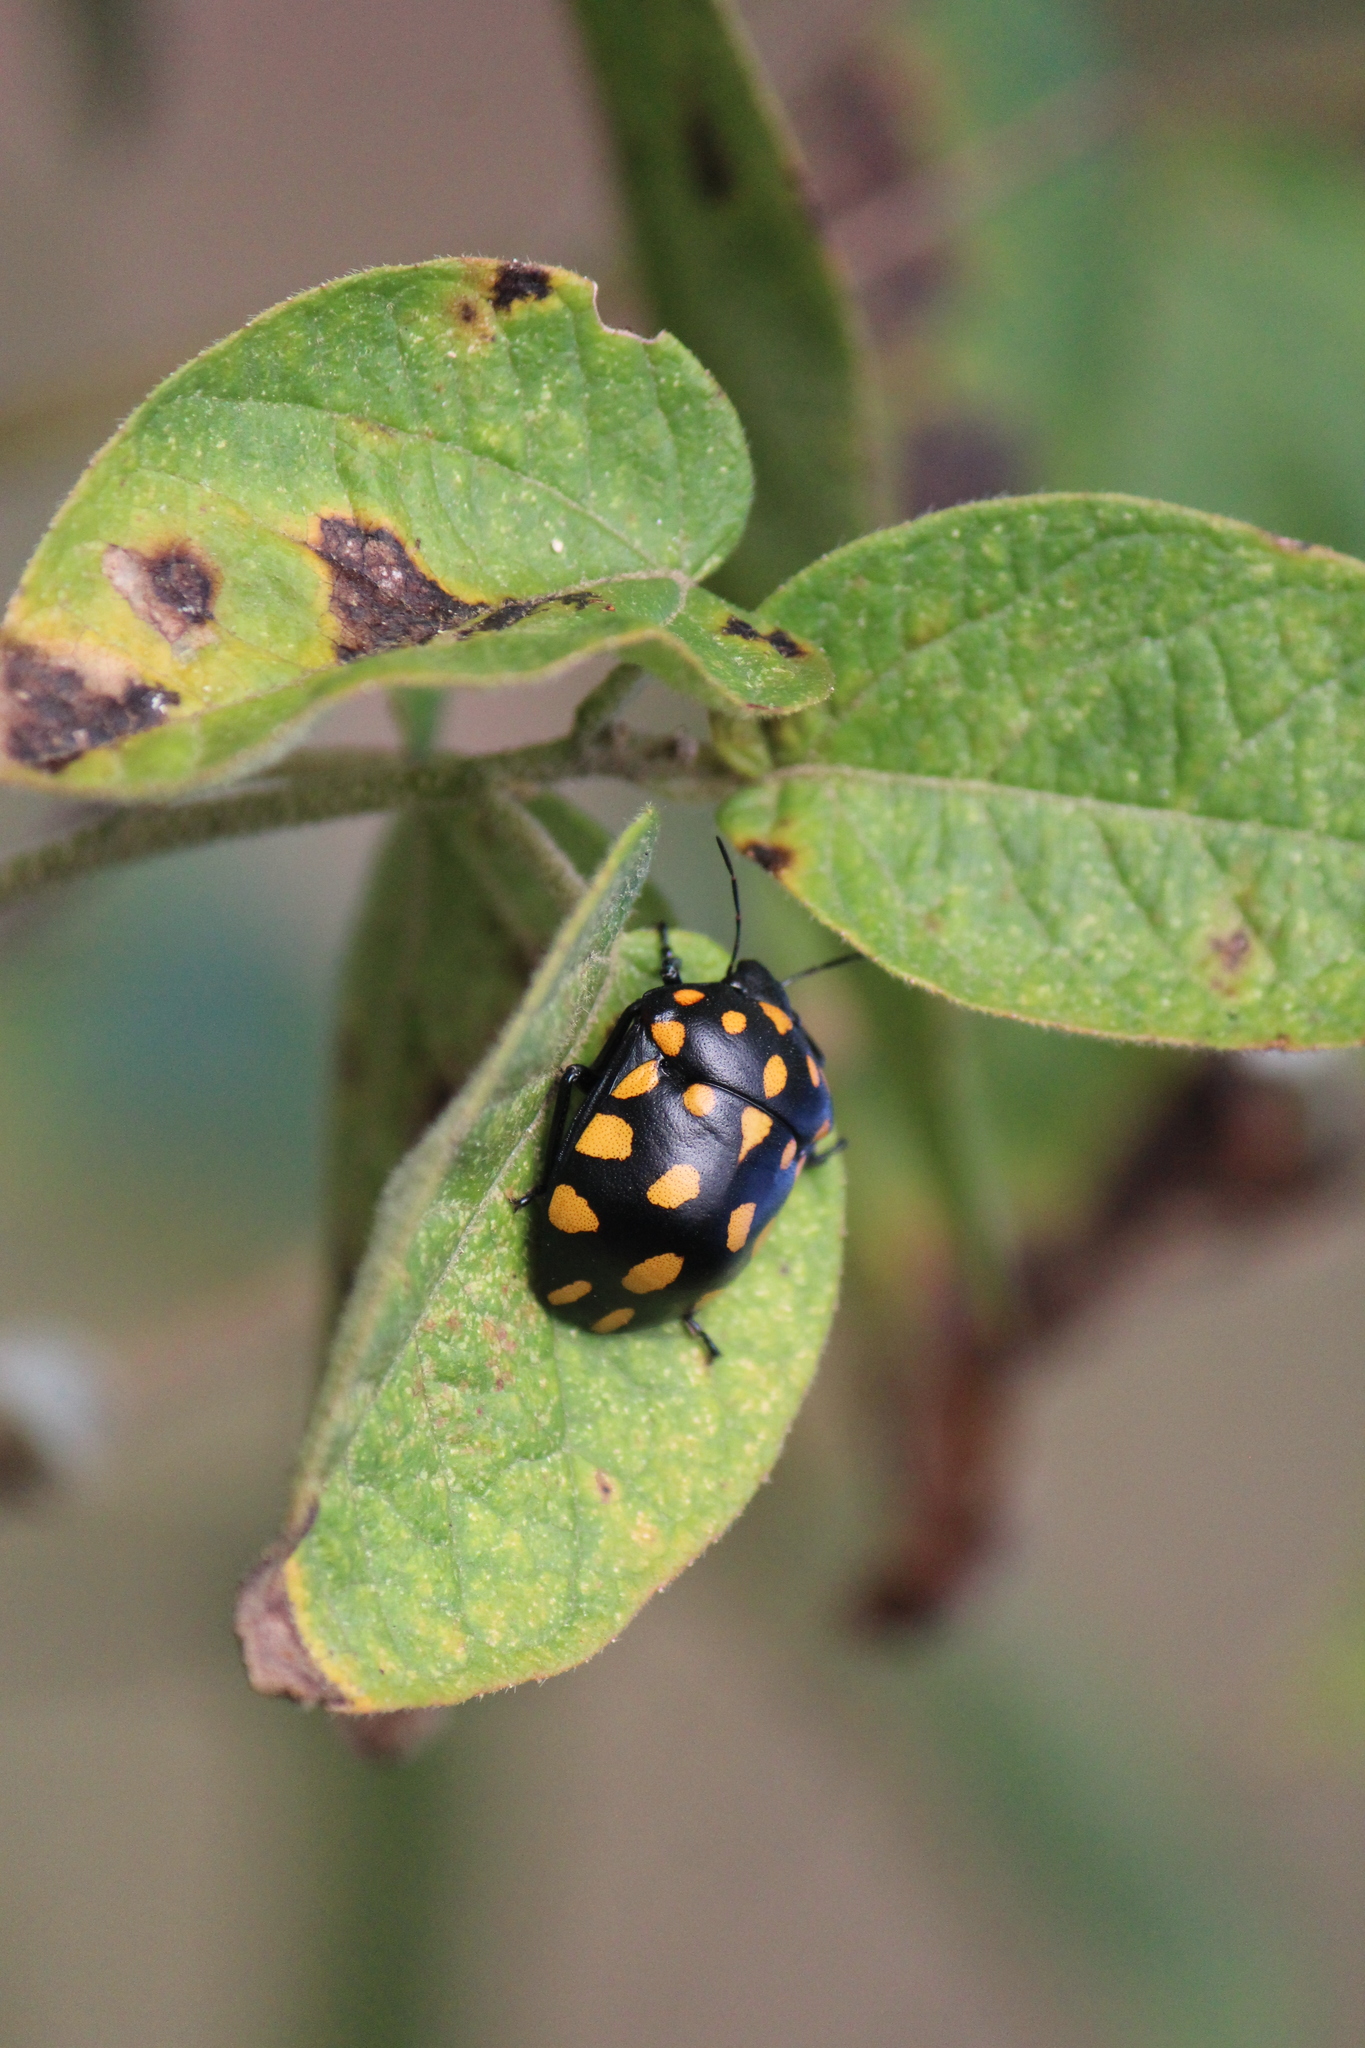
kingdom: Animalia
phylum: Arthropoda
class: Insecta
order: Hemiptera
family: Scutelleridae
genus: Pachycoris
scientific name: Pachycoris klugii
